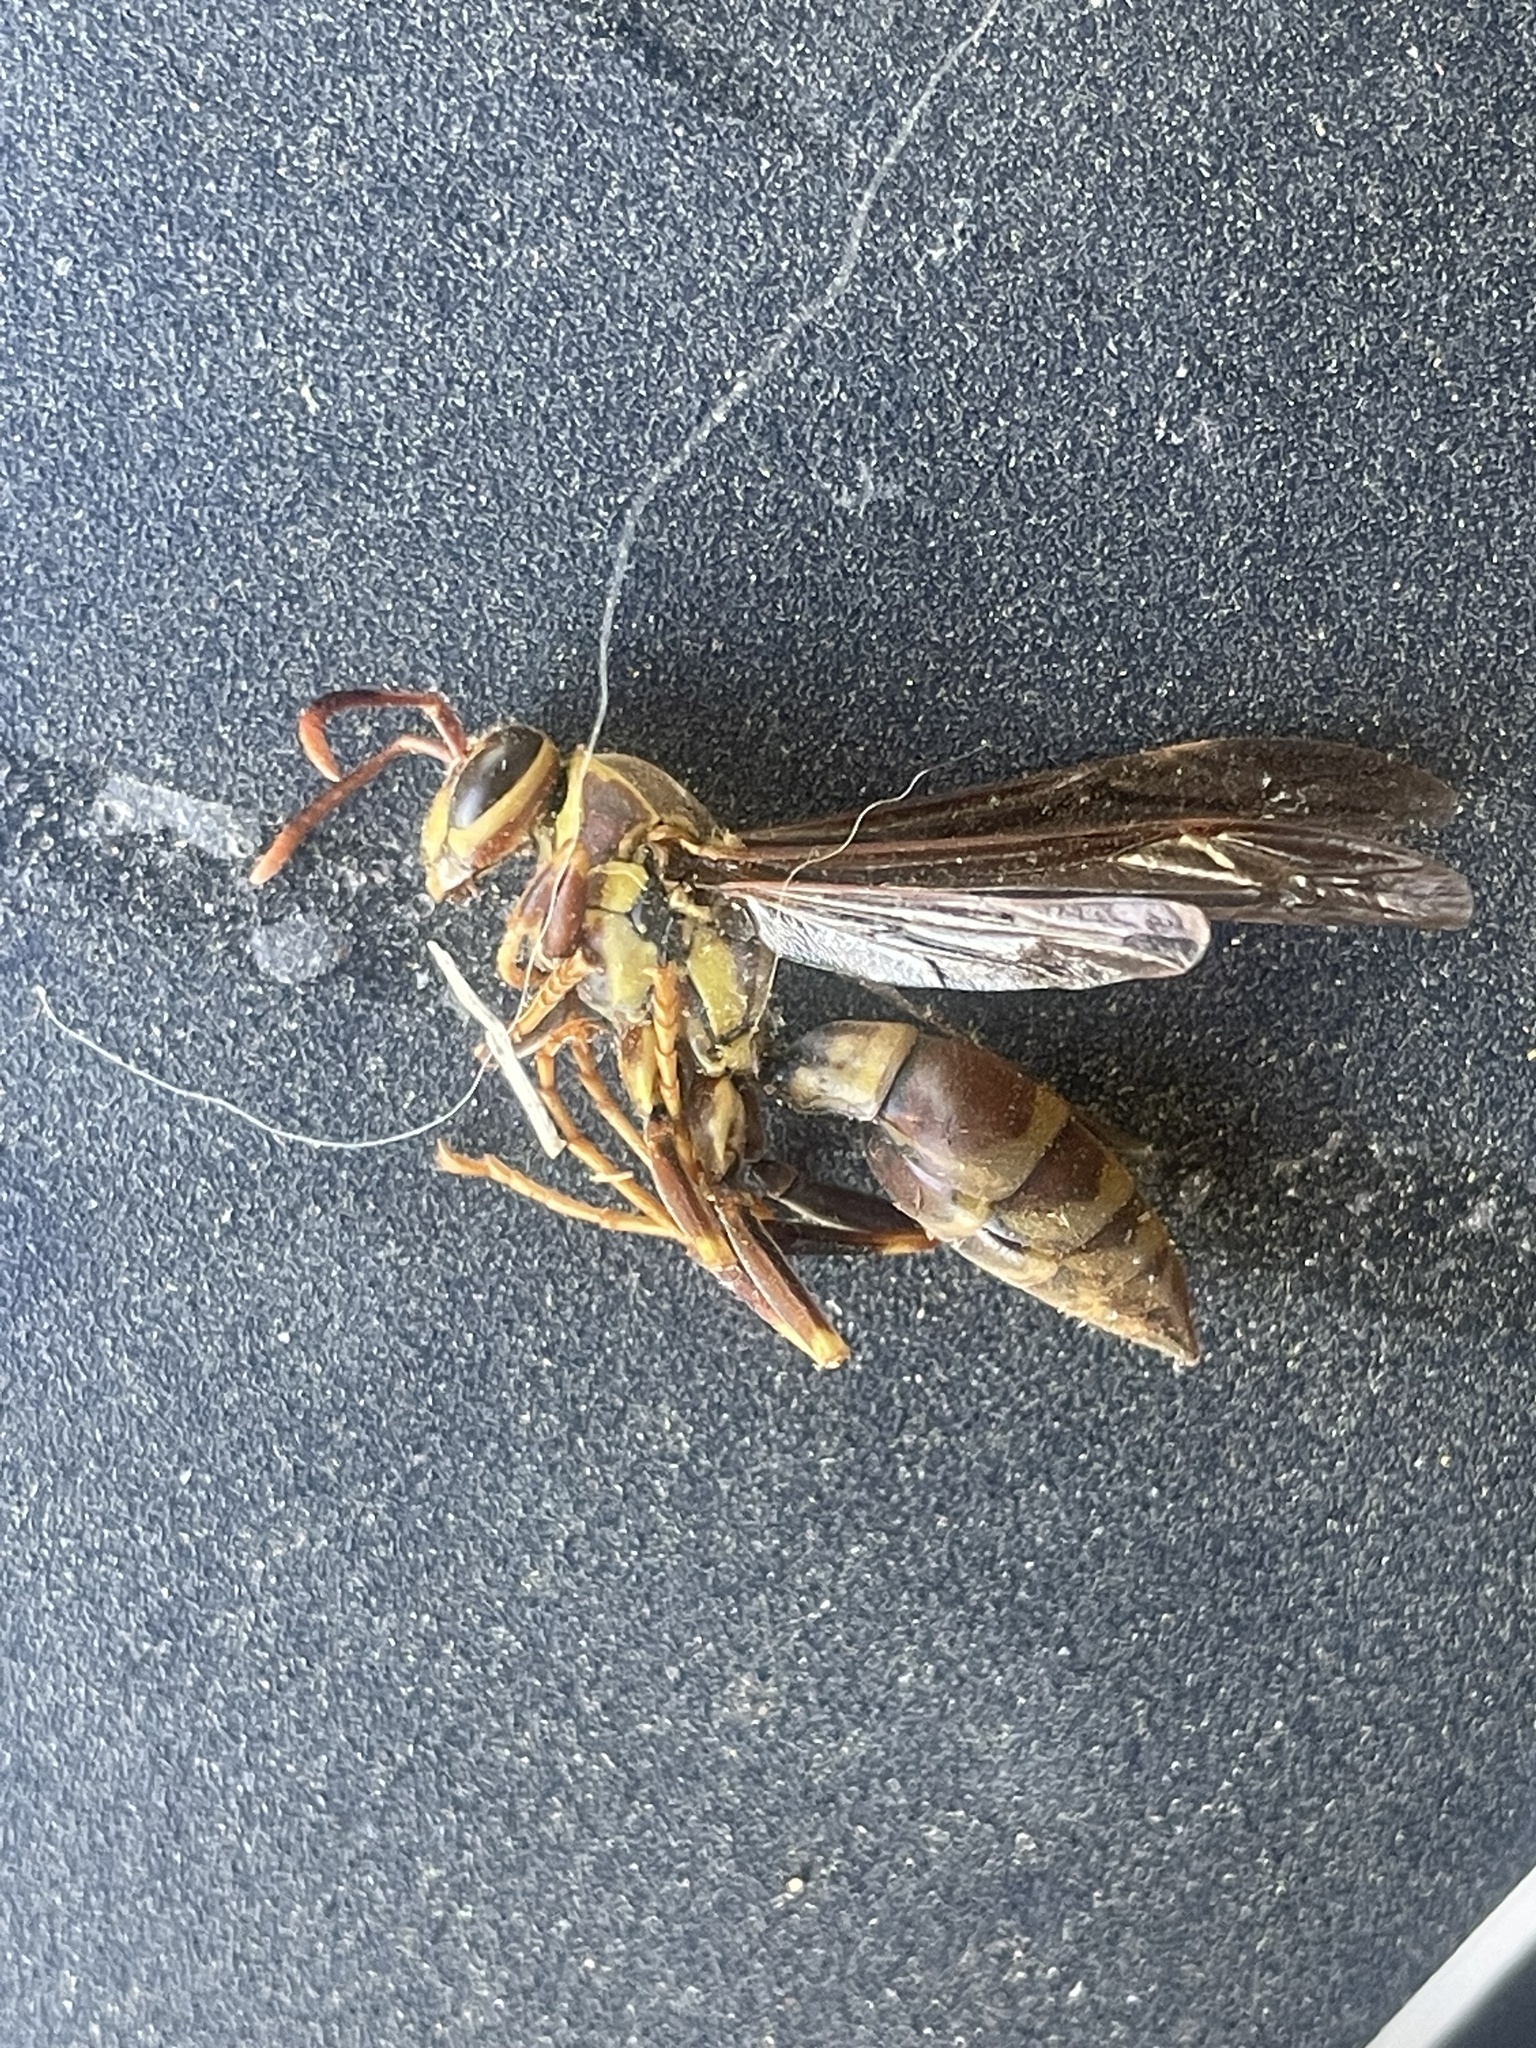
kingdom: Animalia
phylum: Arthropoda
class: Insecta
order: Hymenoptera
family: Eumenidae
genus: Polistes
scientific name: Polistes exclamans
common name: Paper wasp
